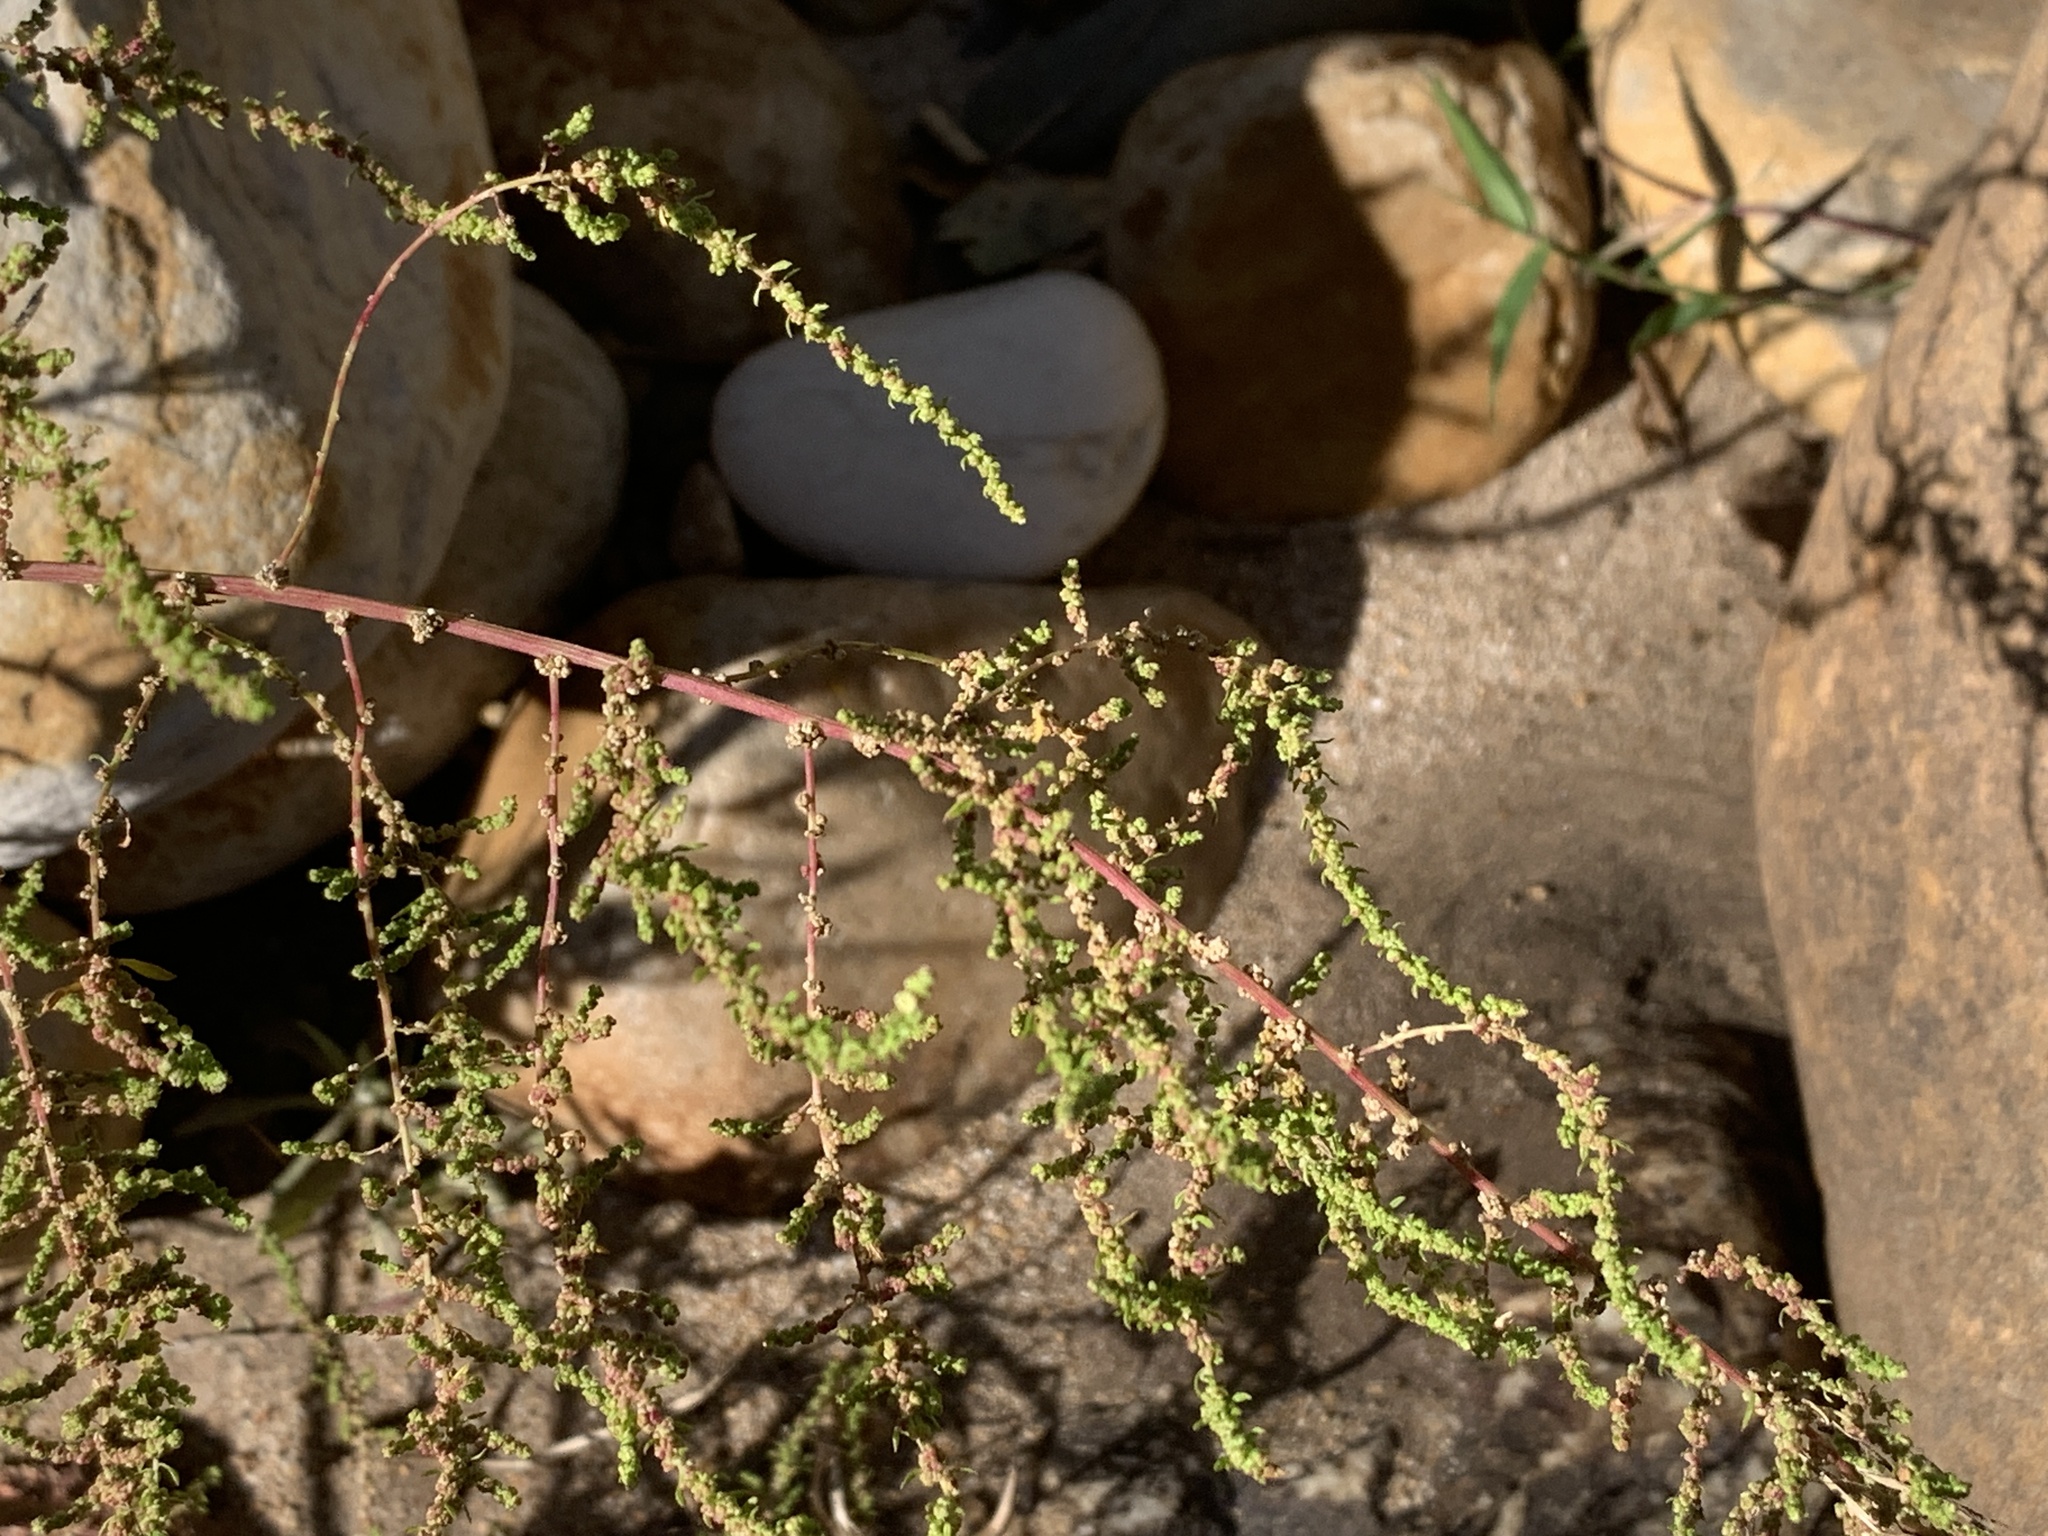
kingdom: Plantae
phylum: Tracheophyta
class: Magnoliopsida
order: Caryophyllales
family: Amaranthaceae
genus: Dysphania
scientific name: Dysphania ambrosioides
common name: Wormseed
